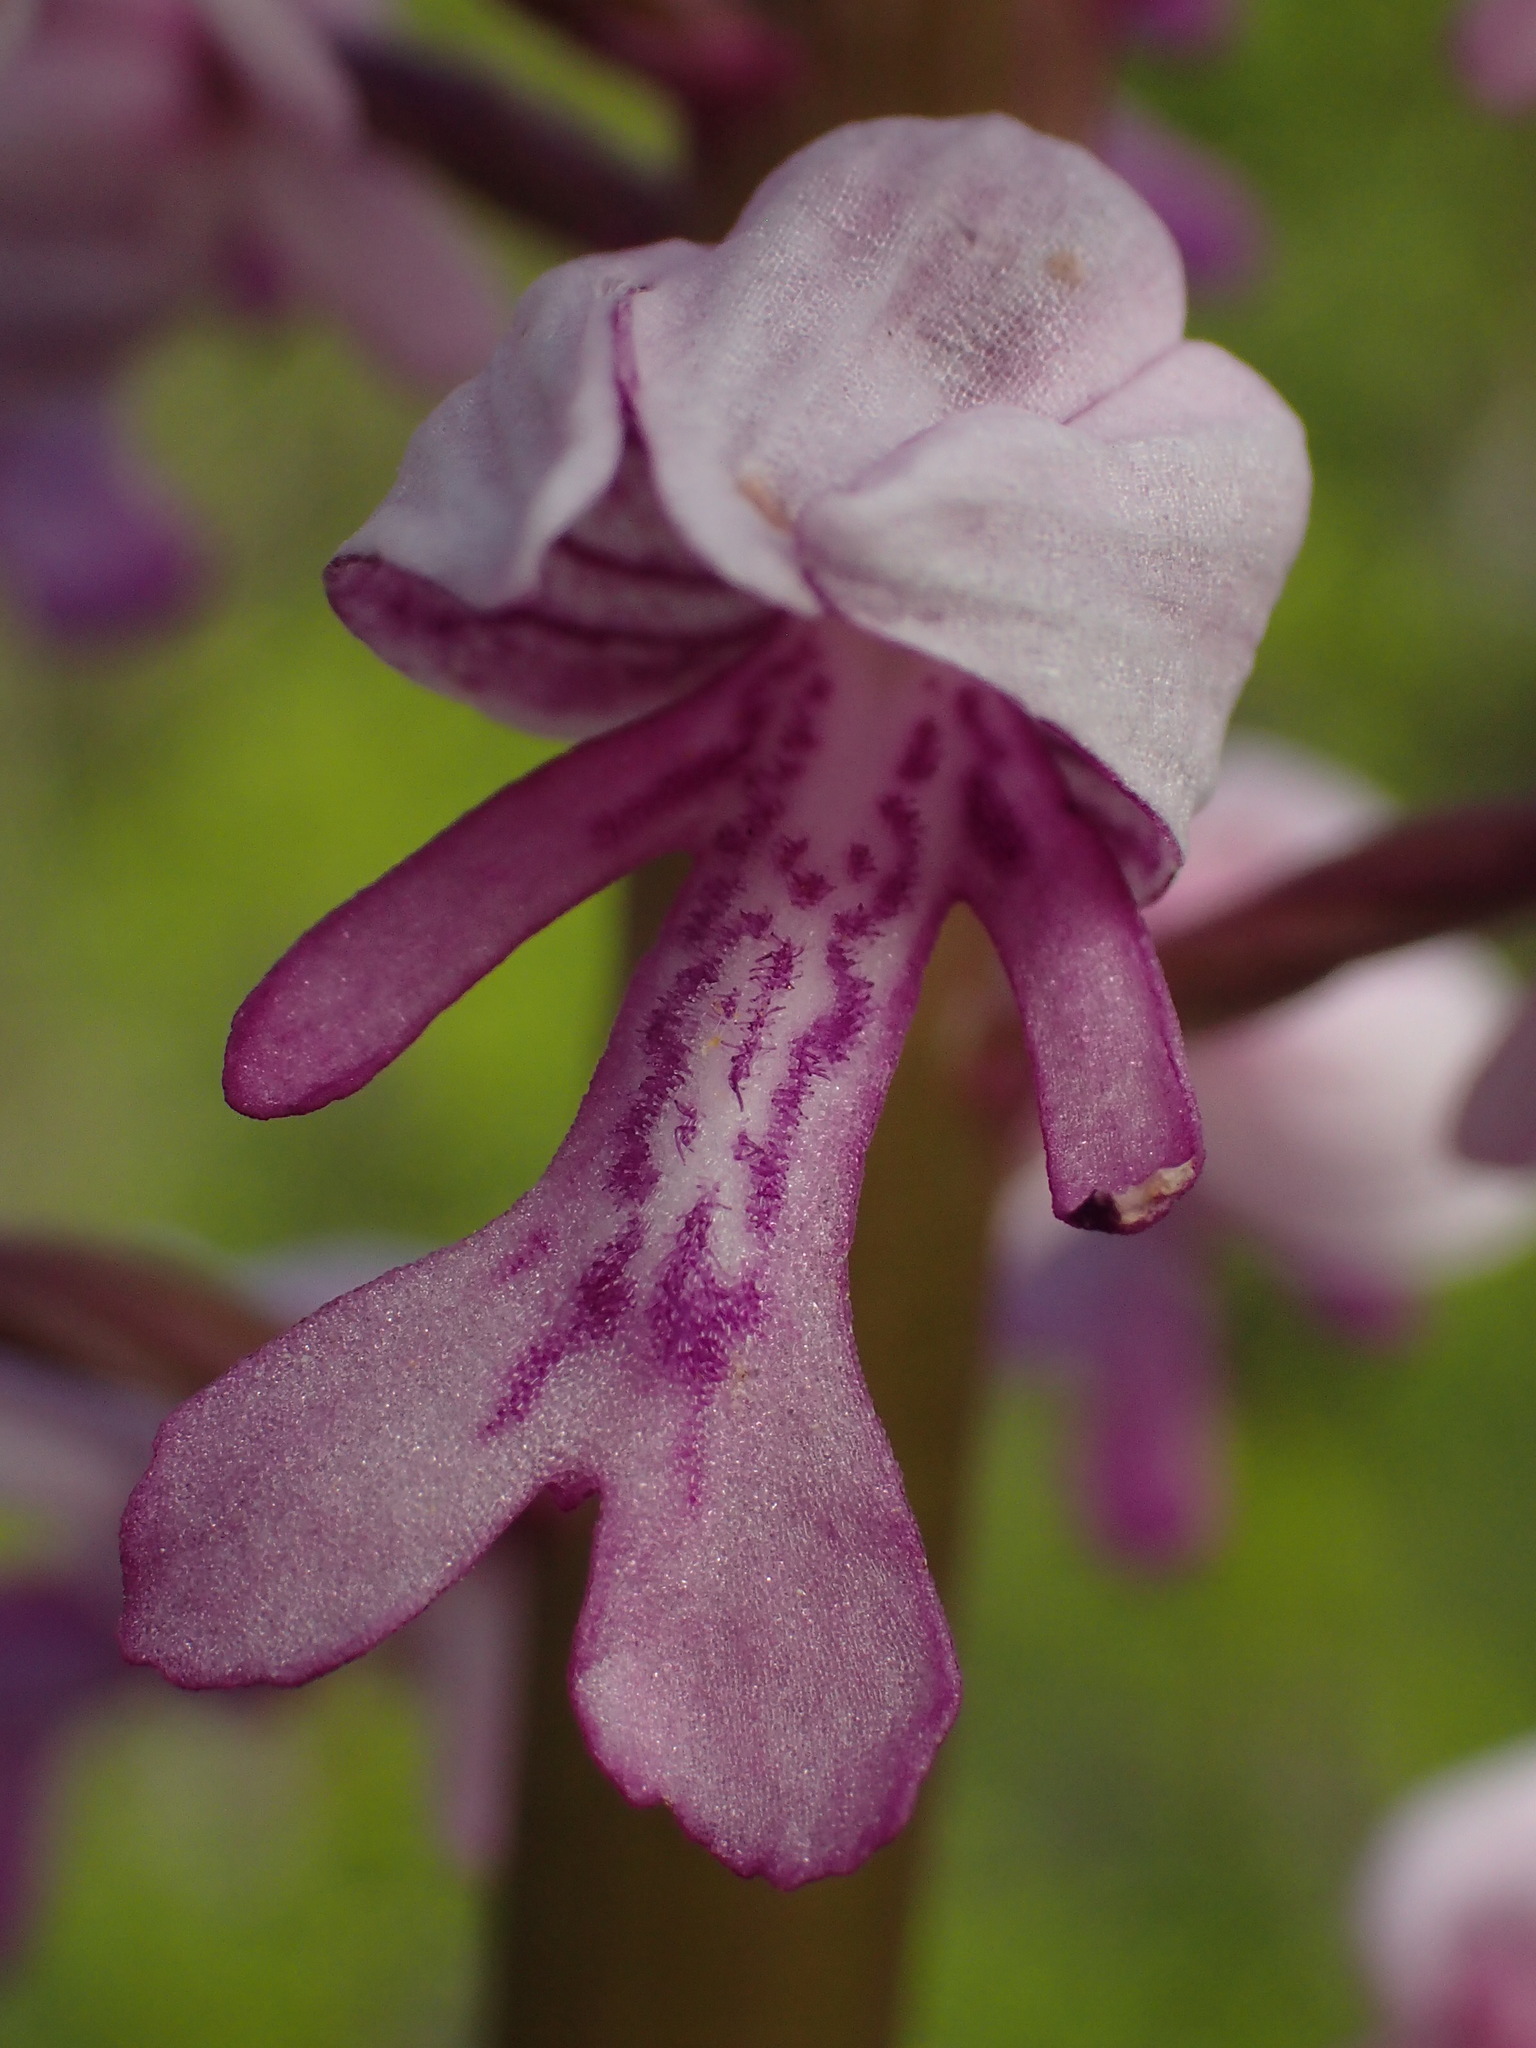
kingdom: Plantae
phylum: Tracheophyta
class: Liliopsida
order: Asparagales
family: Orchidaceae
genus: Orchis
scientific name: Orchis militaris
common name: Military orchid
